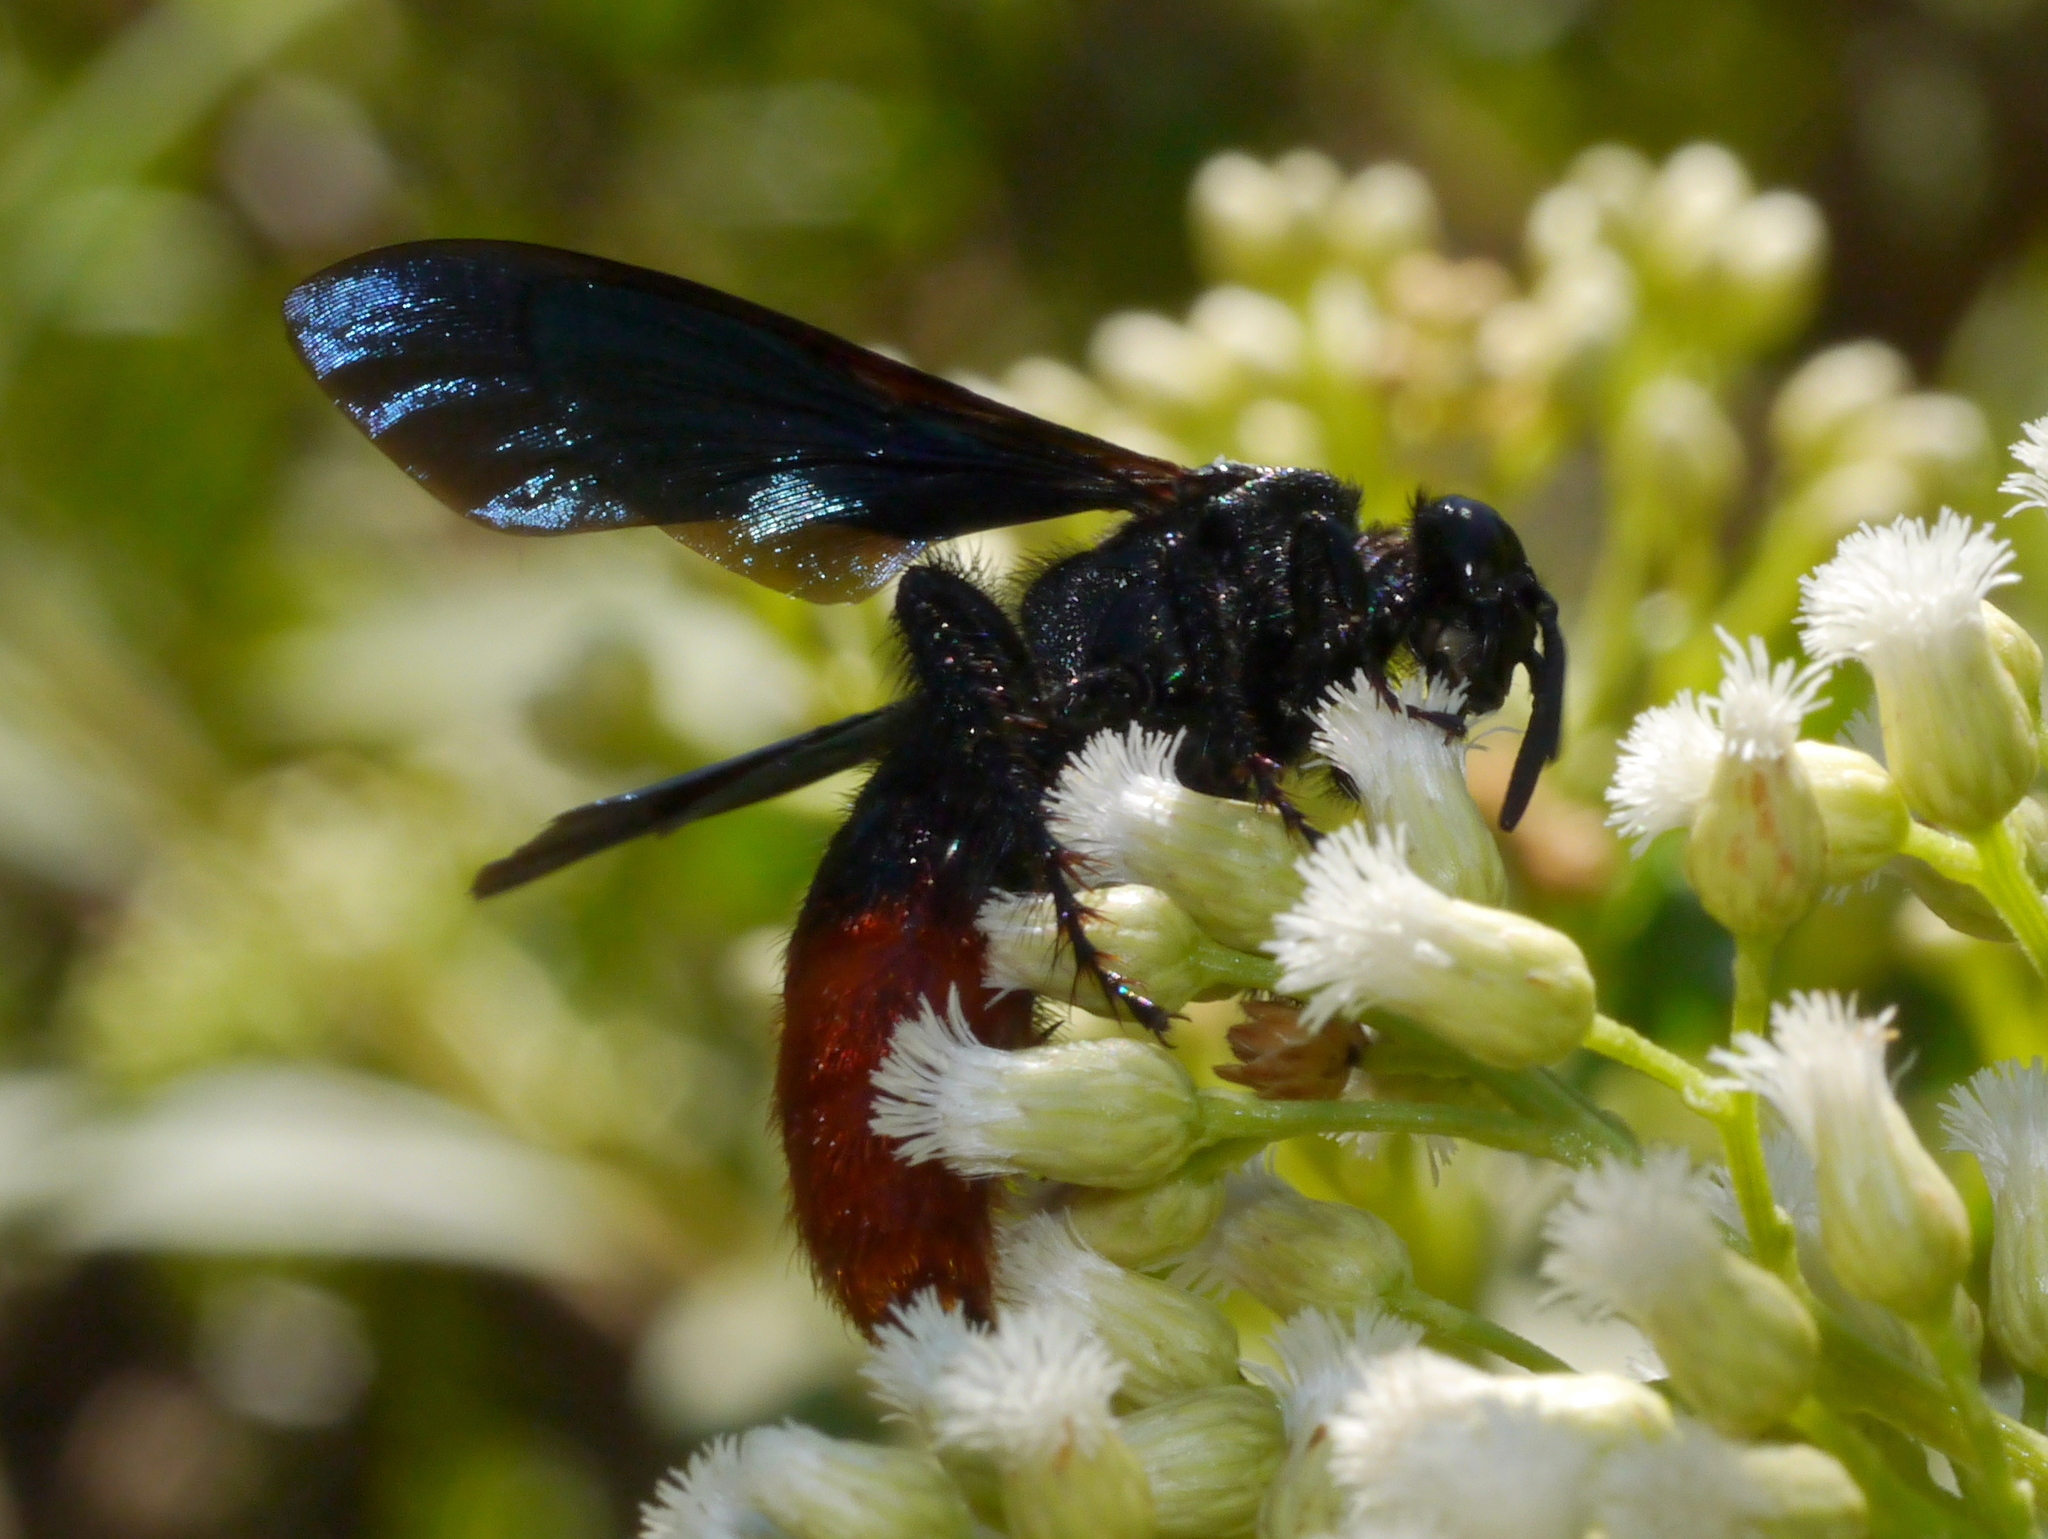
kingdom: Animalia
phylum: Arthropoda
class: Insecta
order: Hymenoptera
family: Scoliidae
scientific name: Scoliidae
